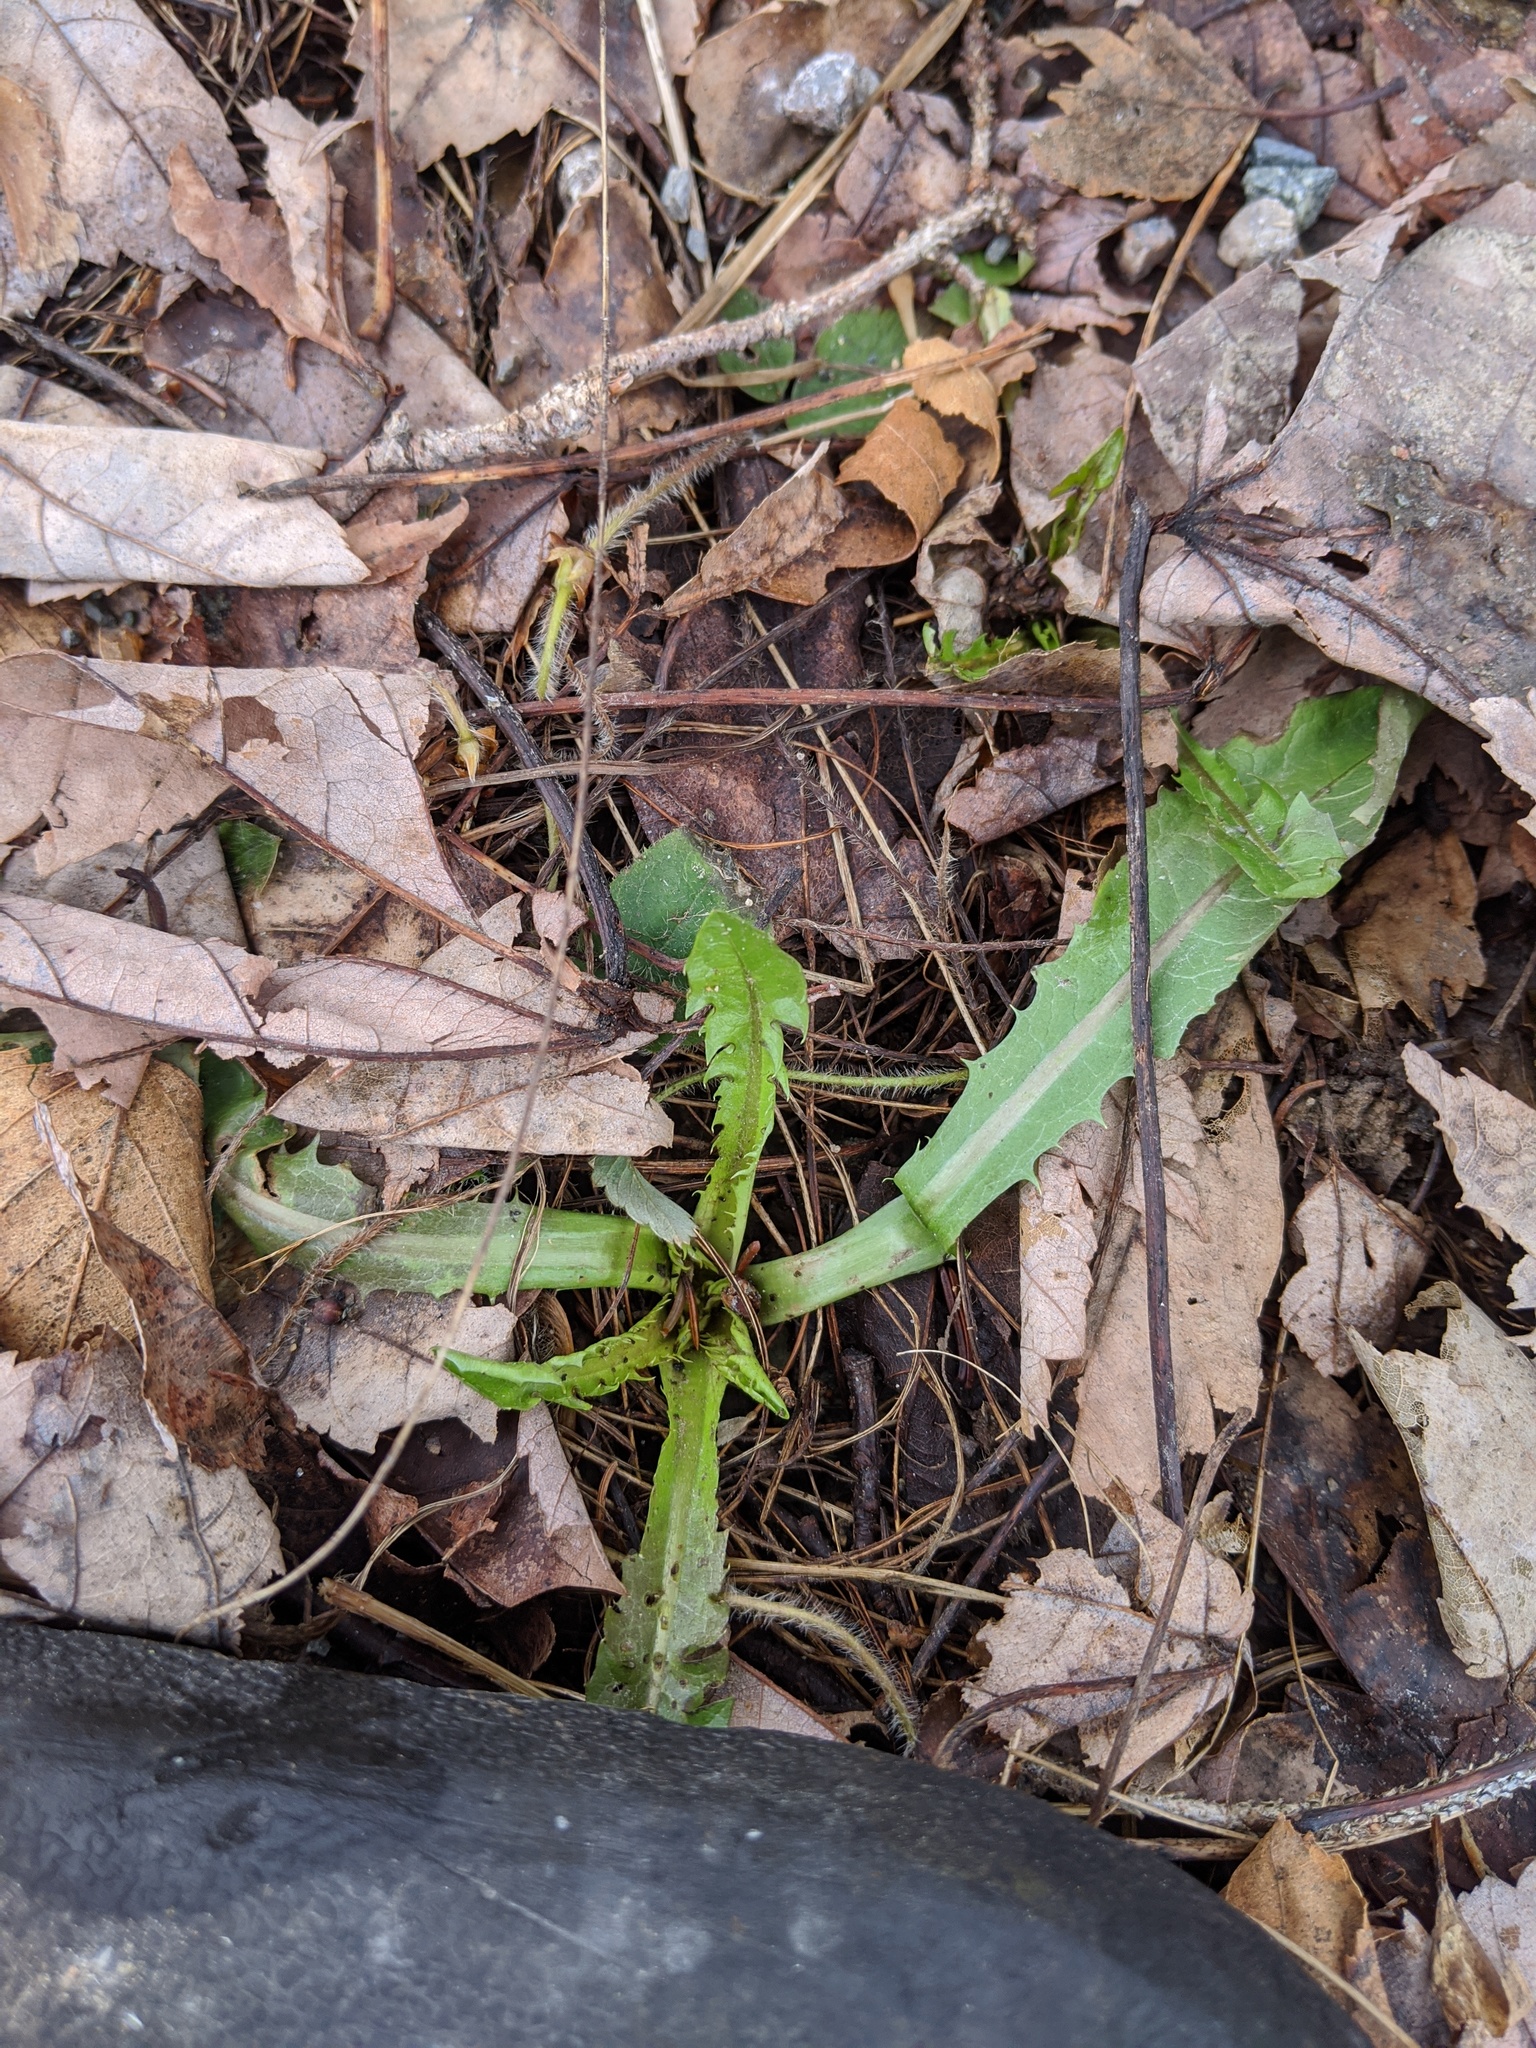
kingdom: Plantae
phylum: Tracheophyta
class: Magnoliopsida
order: Asterales
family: Asteraceae
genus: Taraxacum
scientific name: Taraxacum officinale
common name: Common dandelion
